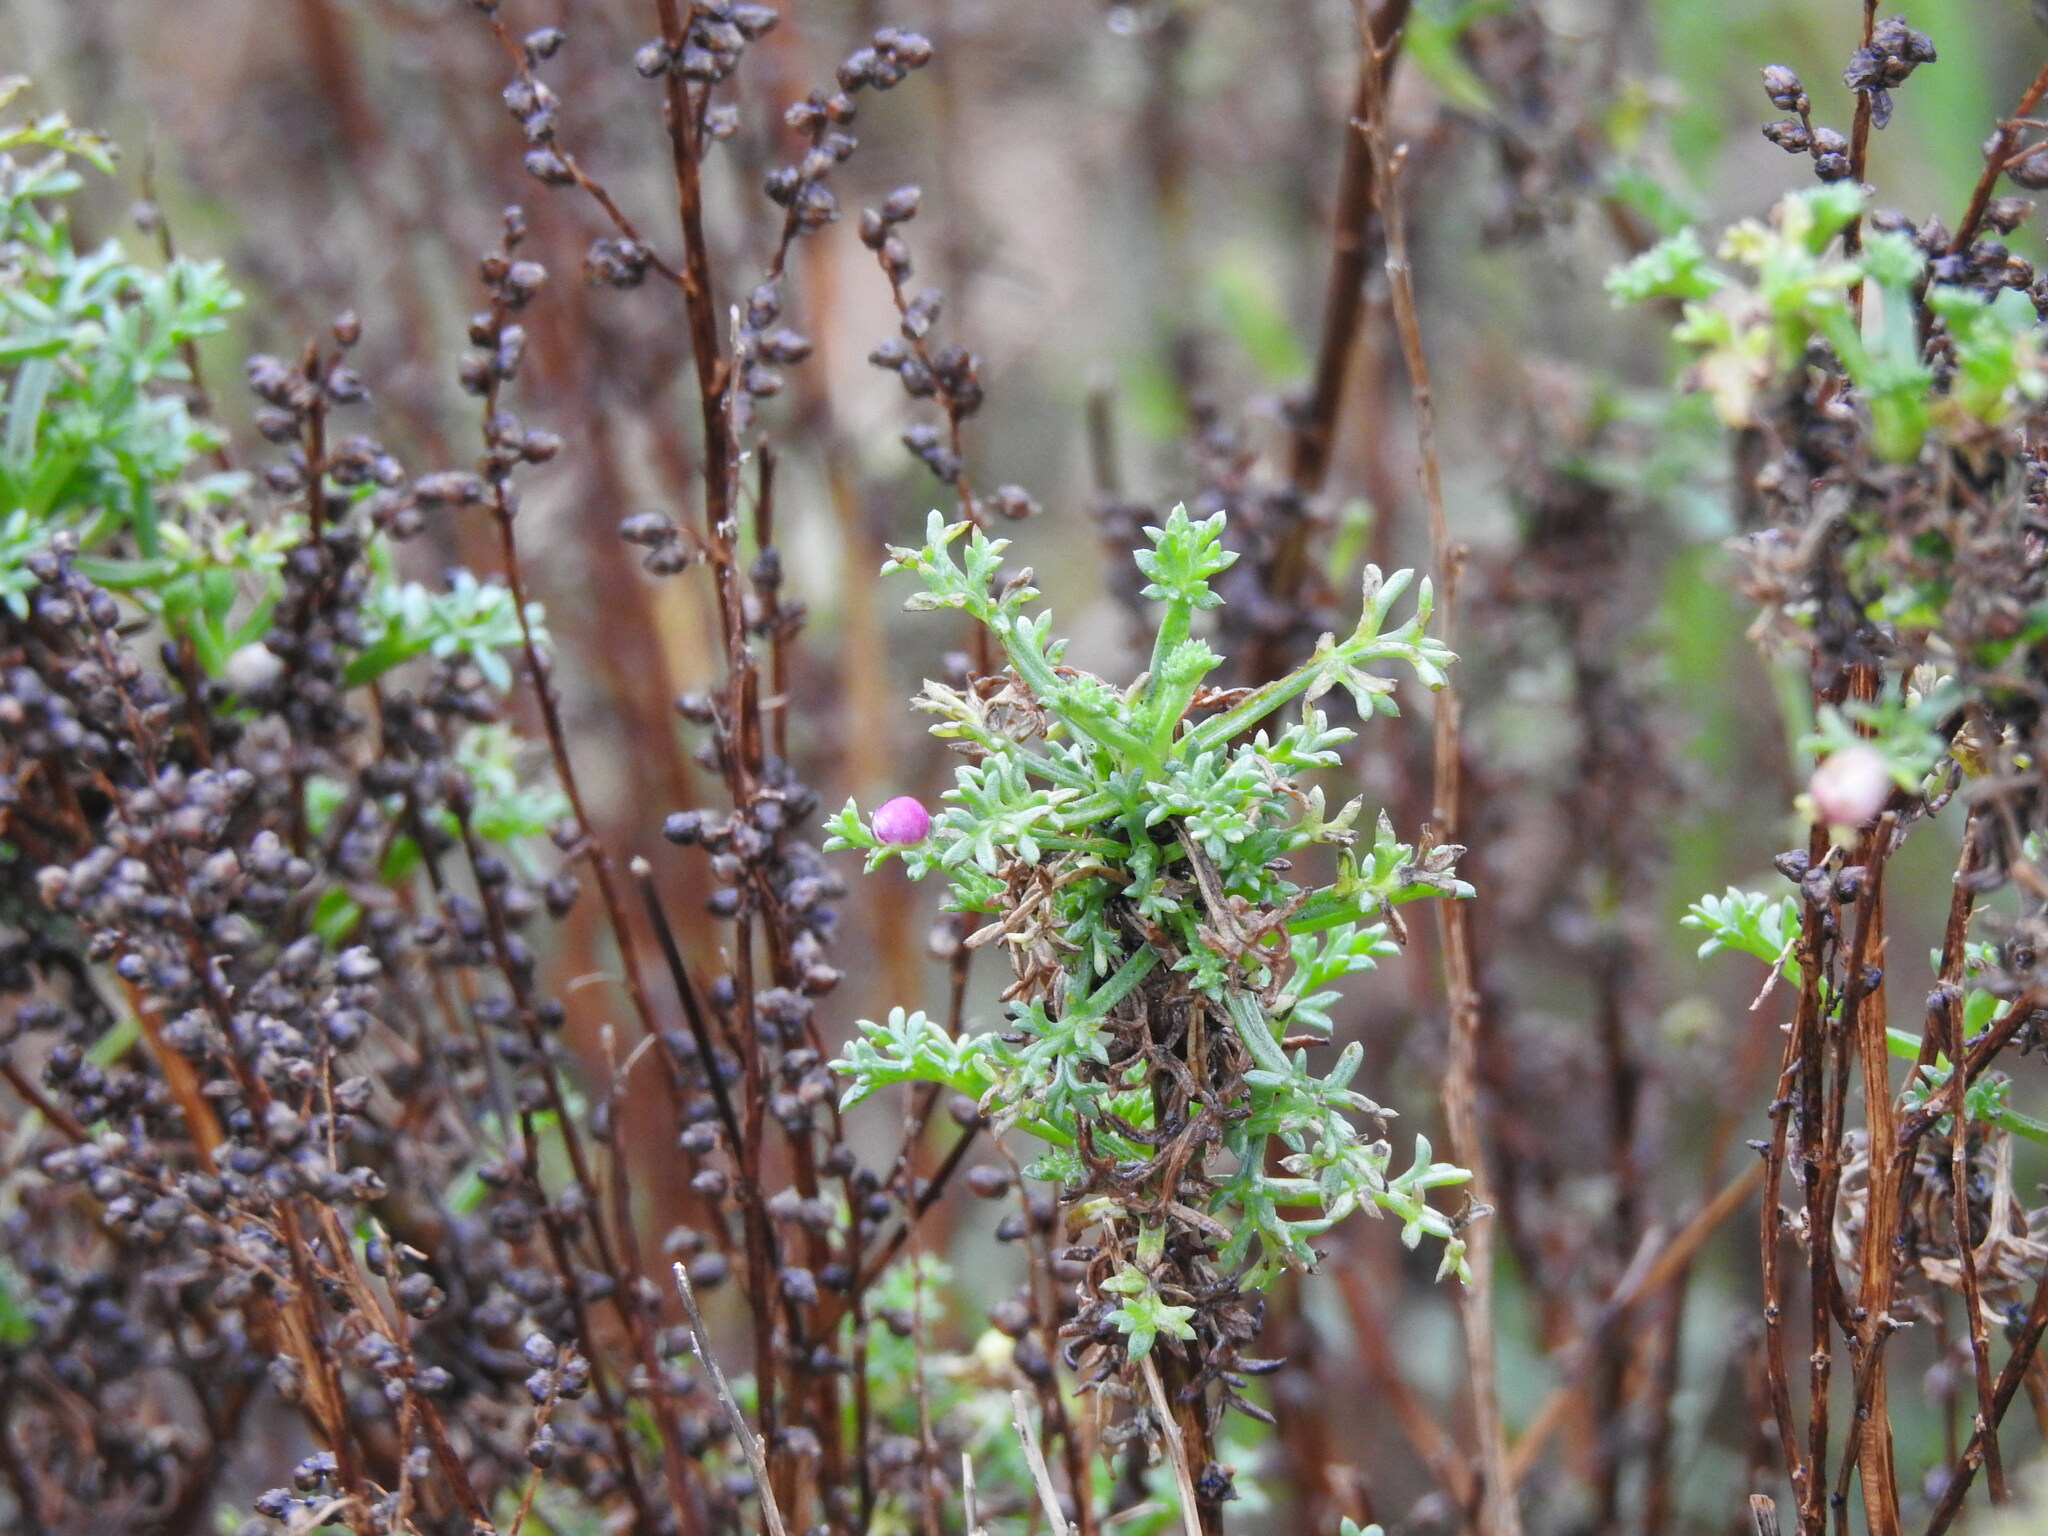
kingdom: Plantae
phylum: Tracheophyta
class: Magnoliopsida
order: Asterales
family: Asteraceae
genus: Artemisia
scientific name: Artemisia crithmifolia
